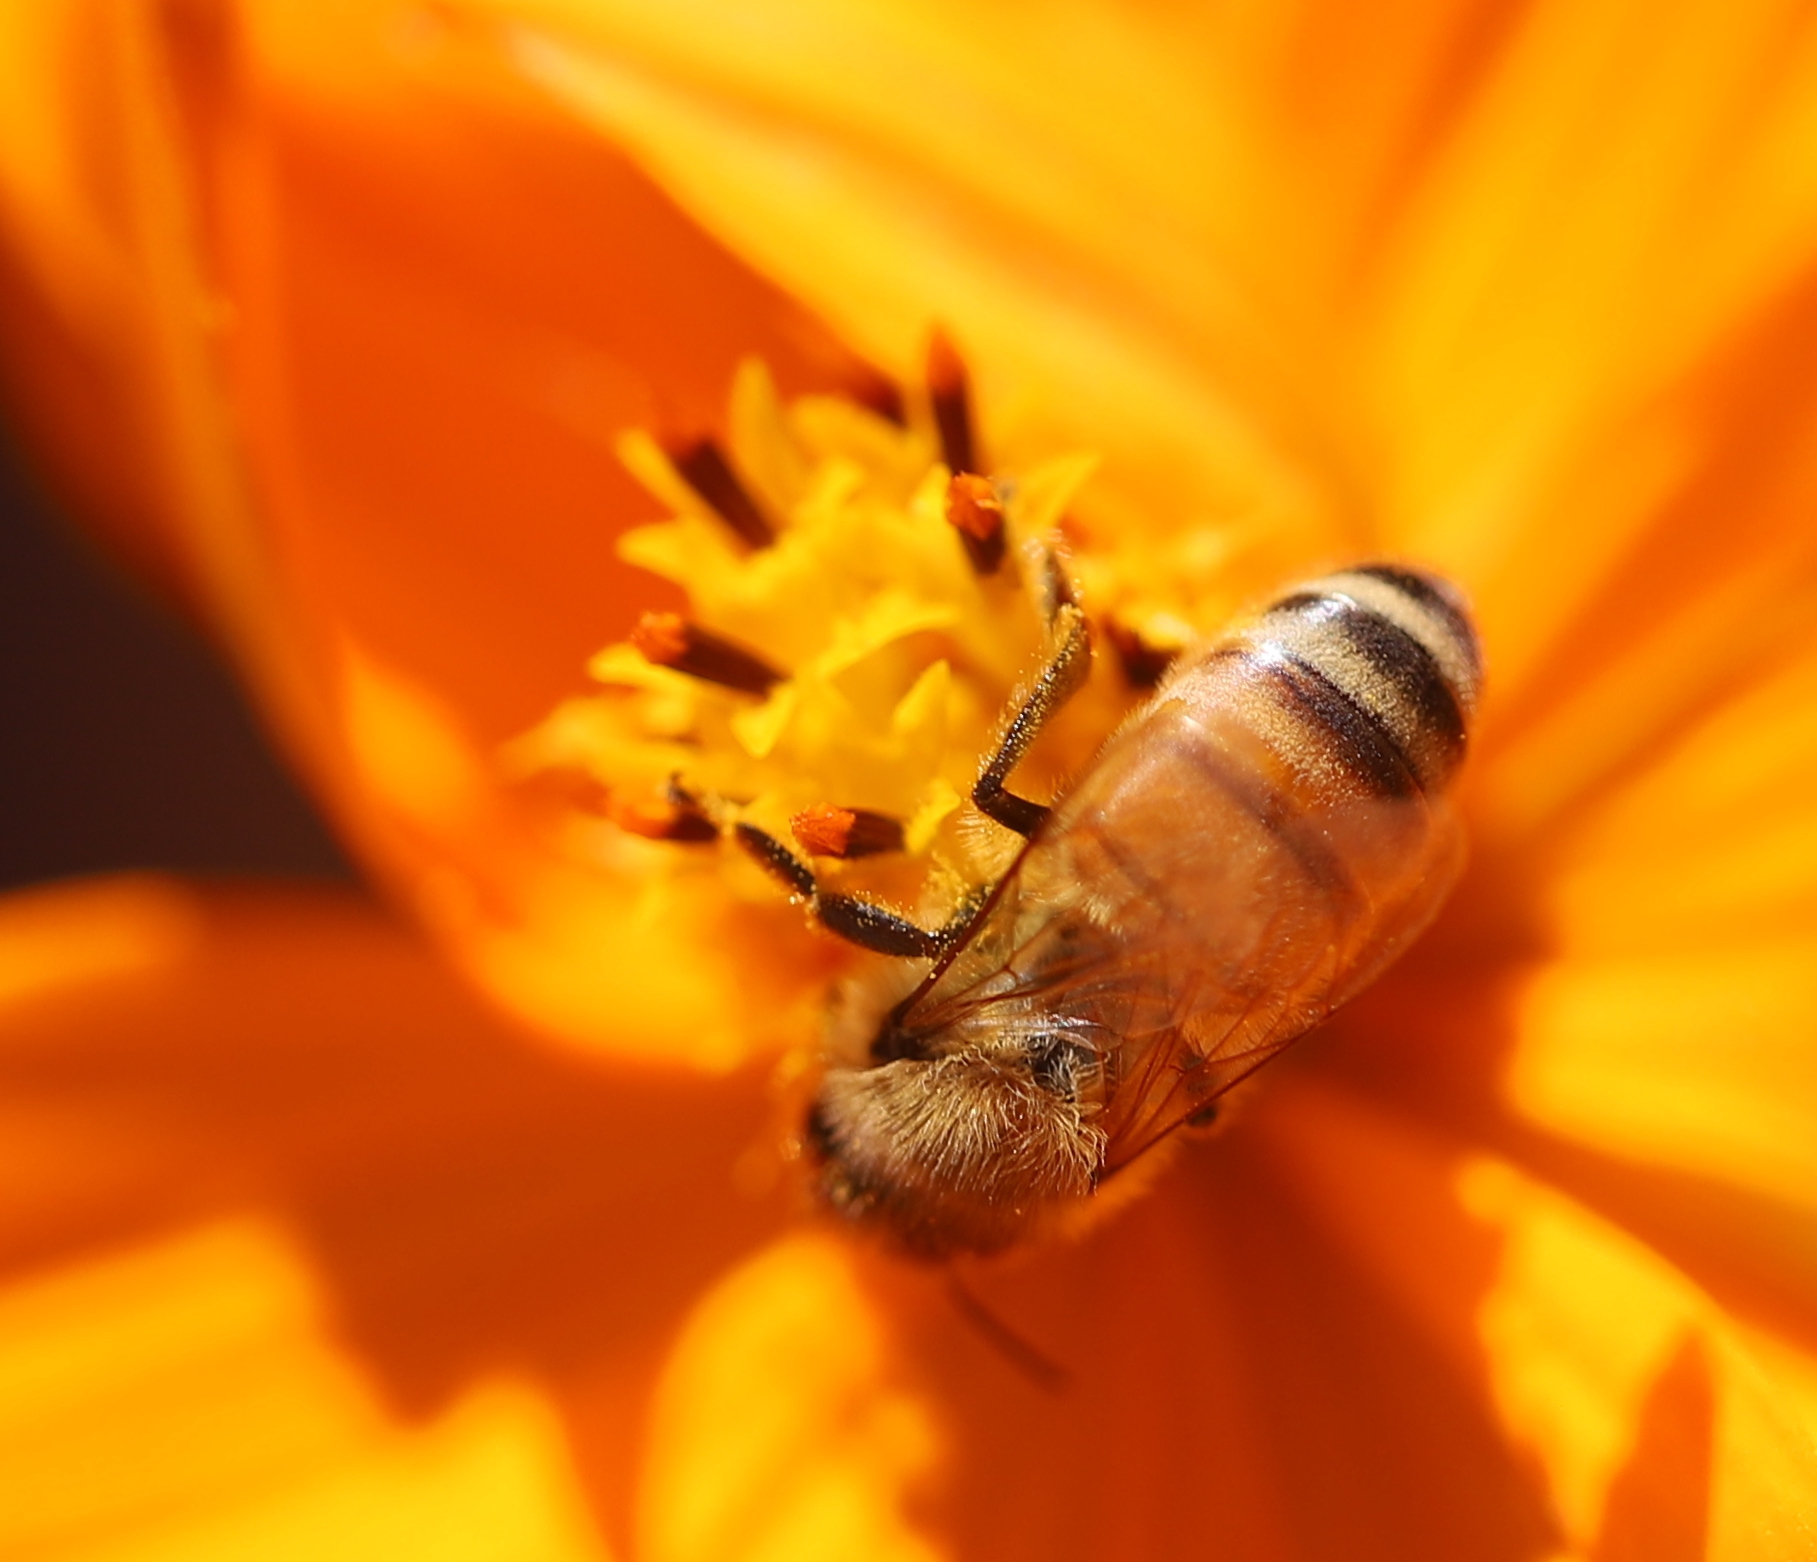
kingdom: Animalia
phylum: Arthropoda
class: Insecta
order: Hymenoptera
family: Apidae
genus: Apis
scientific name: Apis mellifera
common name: Honey bee
